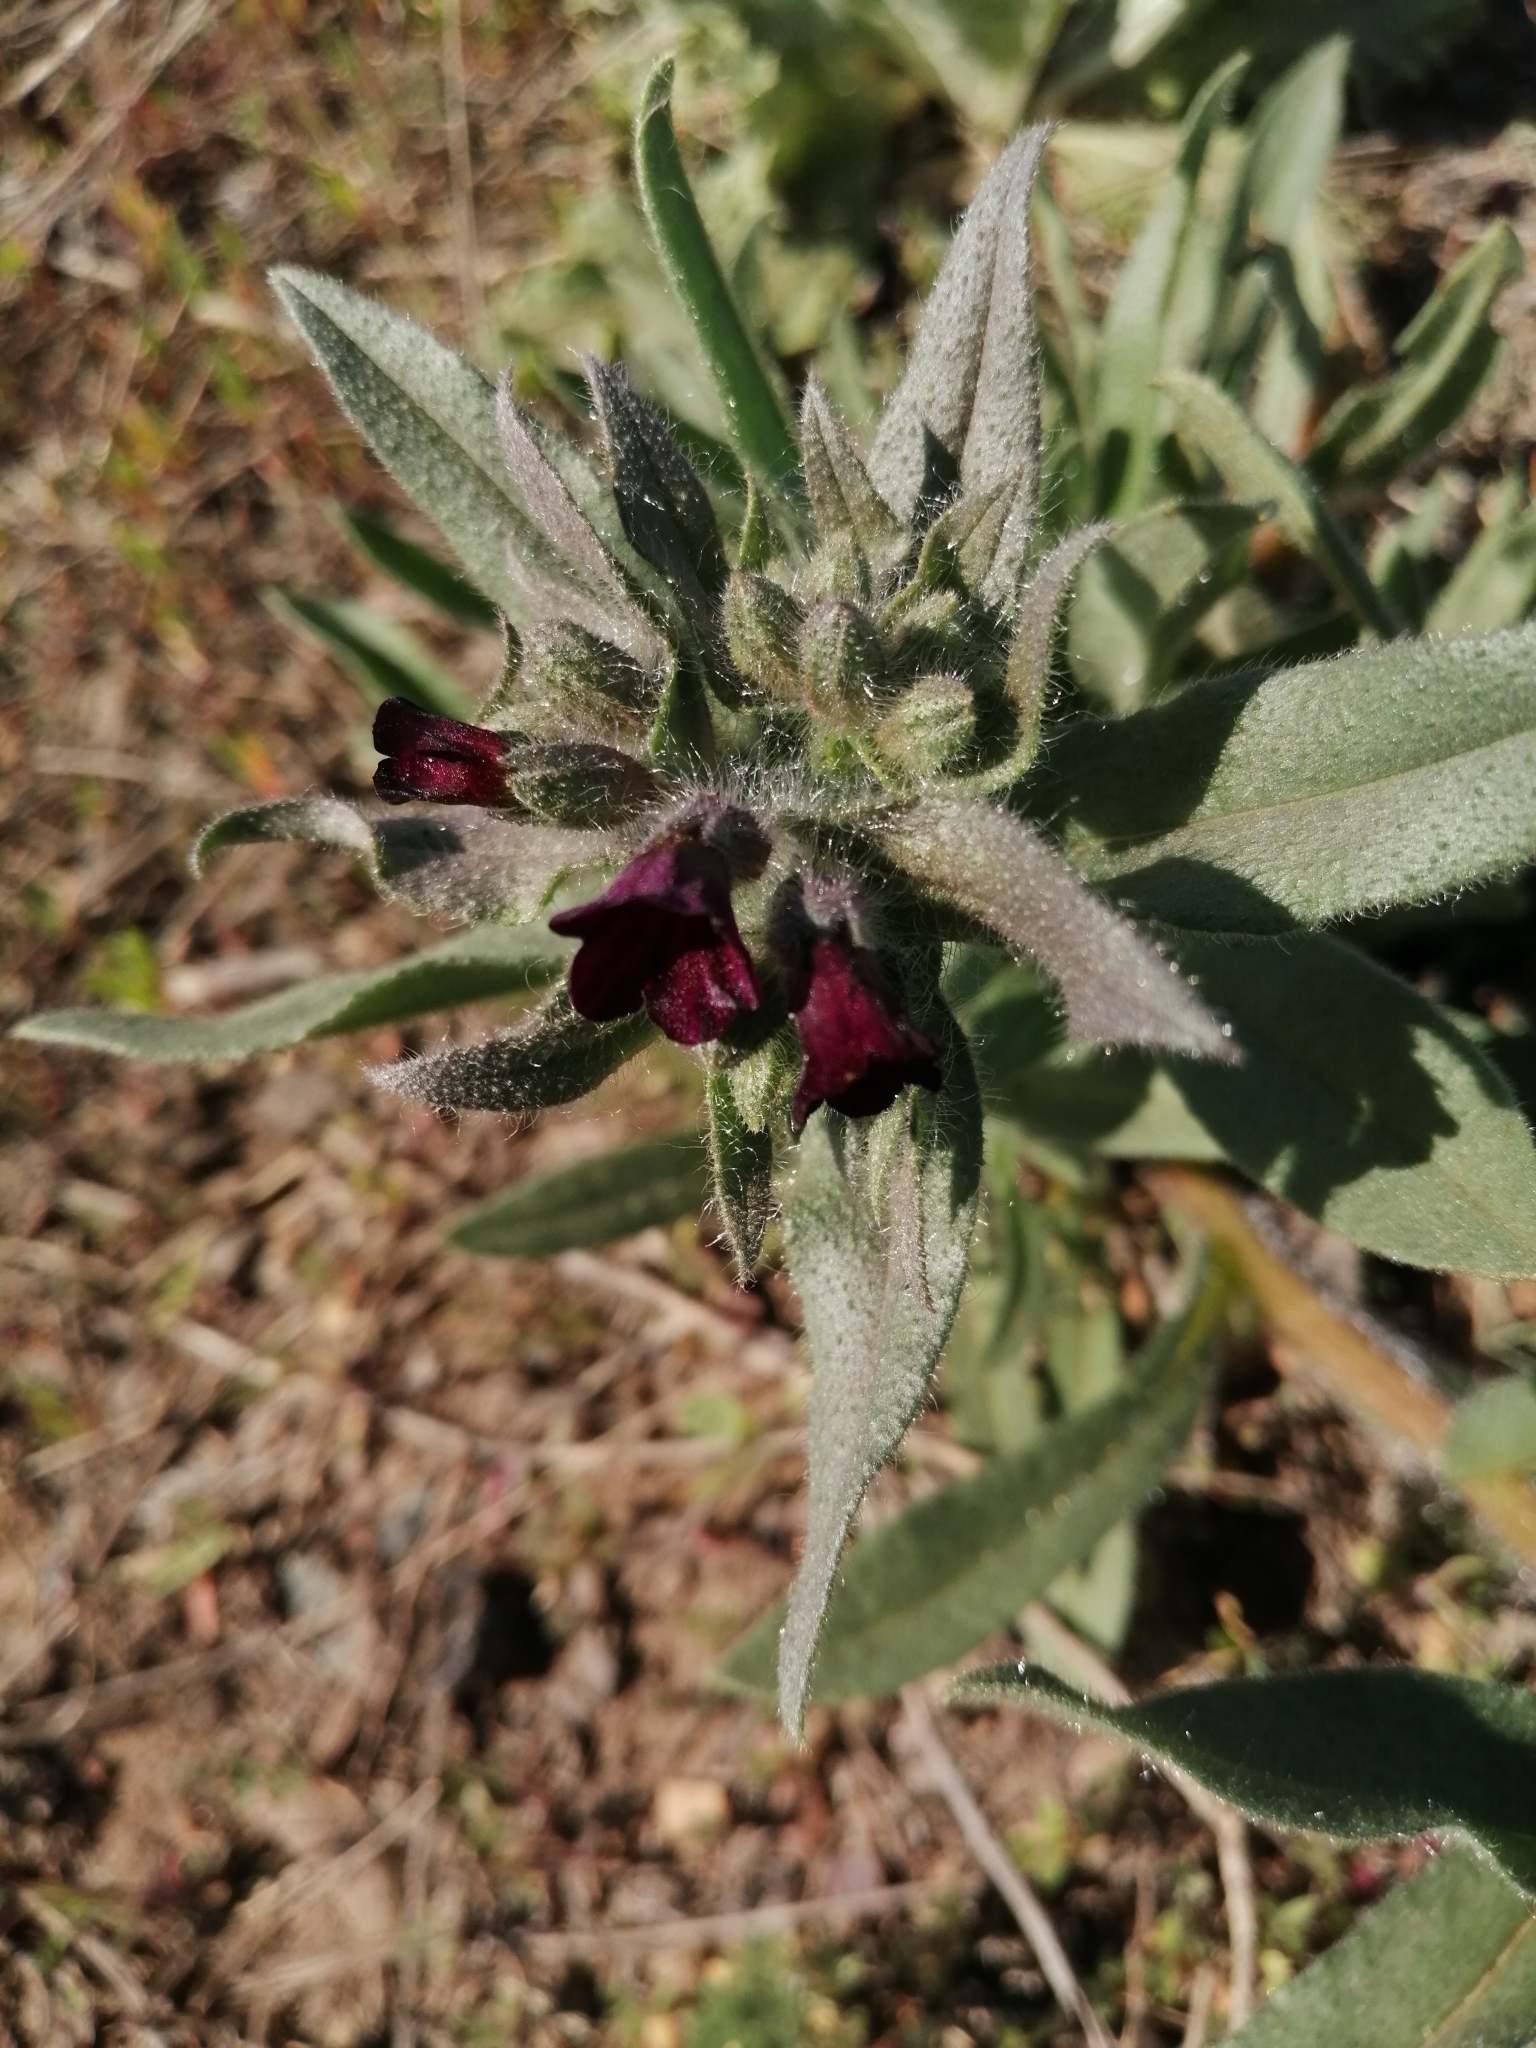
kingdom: Plantae
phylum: Tracheophyta
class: Magnoliopsida
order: Boraginales
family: Boraginaceae
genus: Nonea
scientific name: Nonea pulla
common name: Brown nonea
